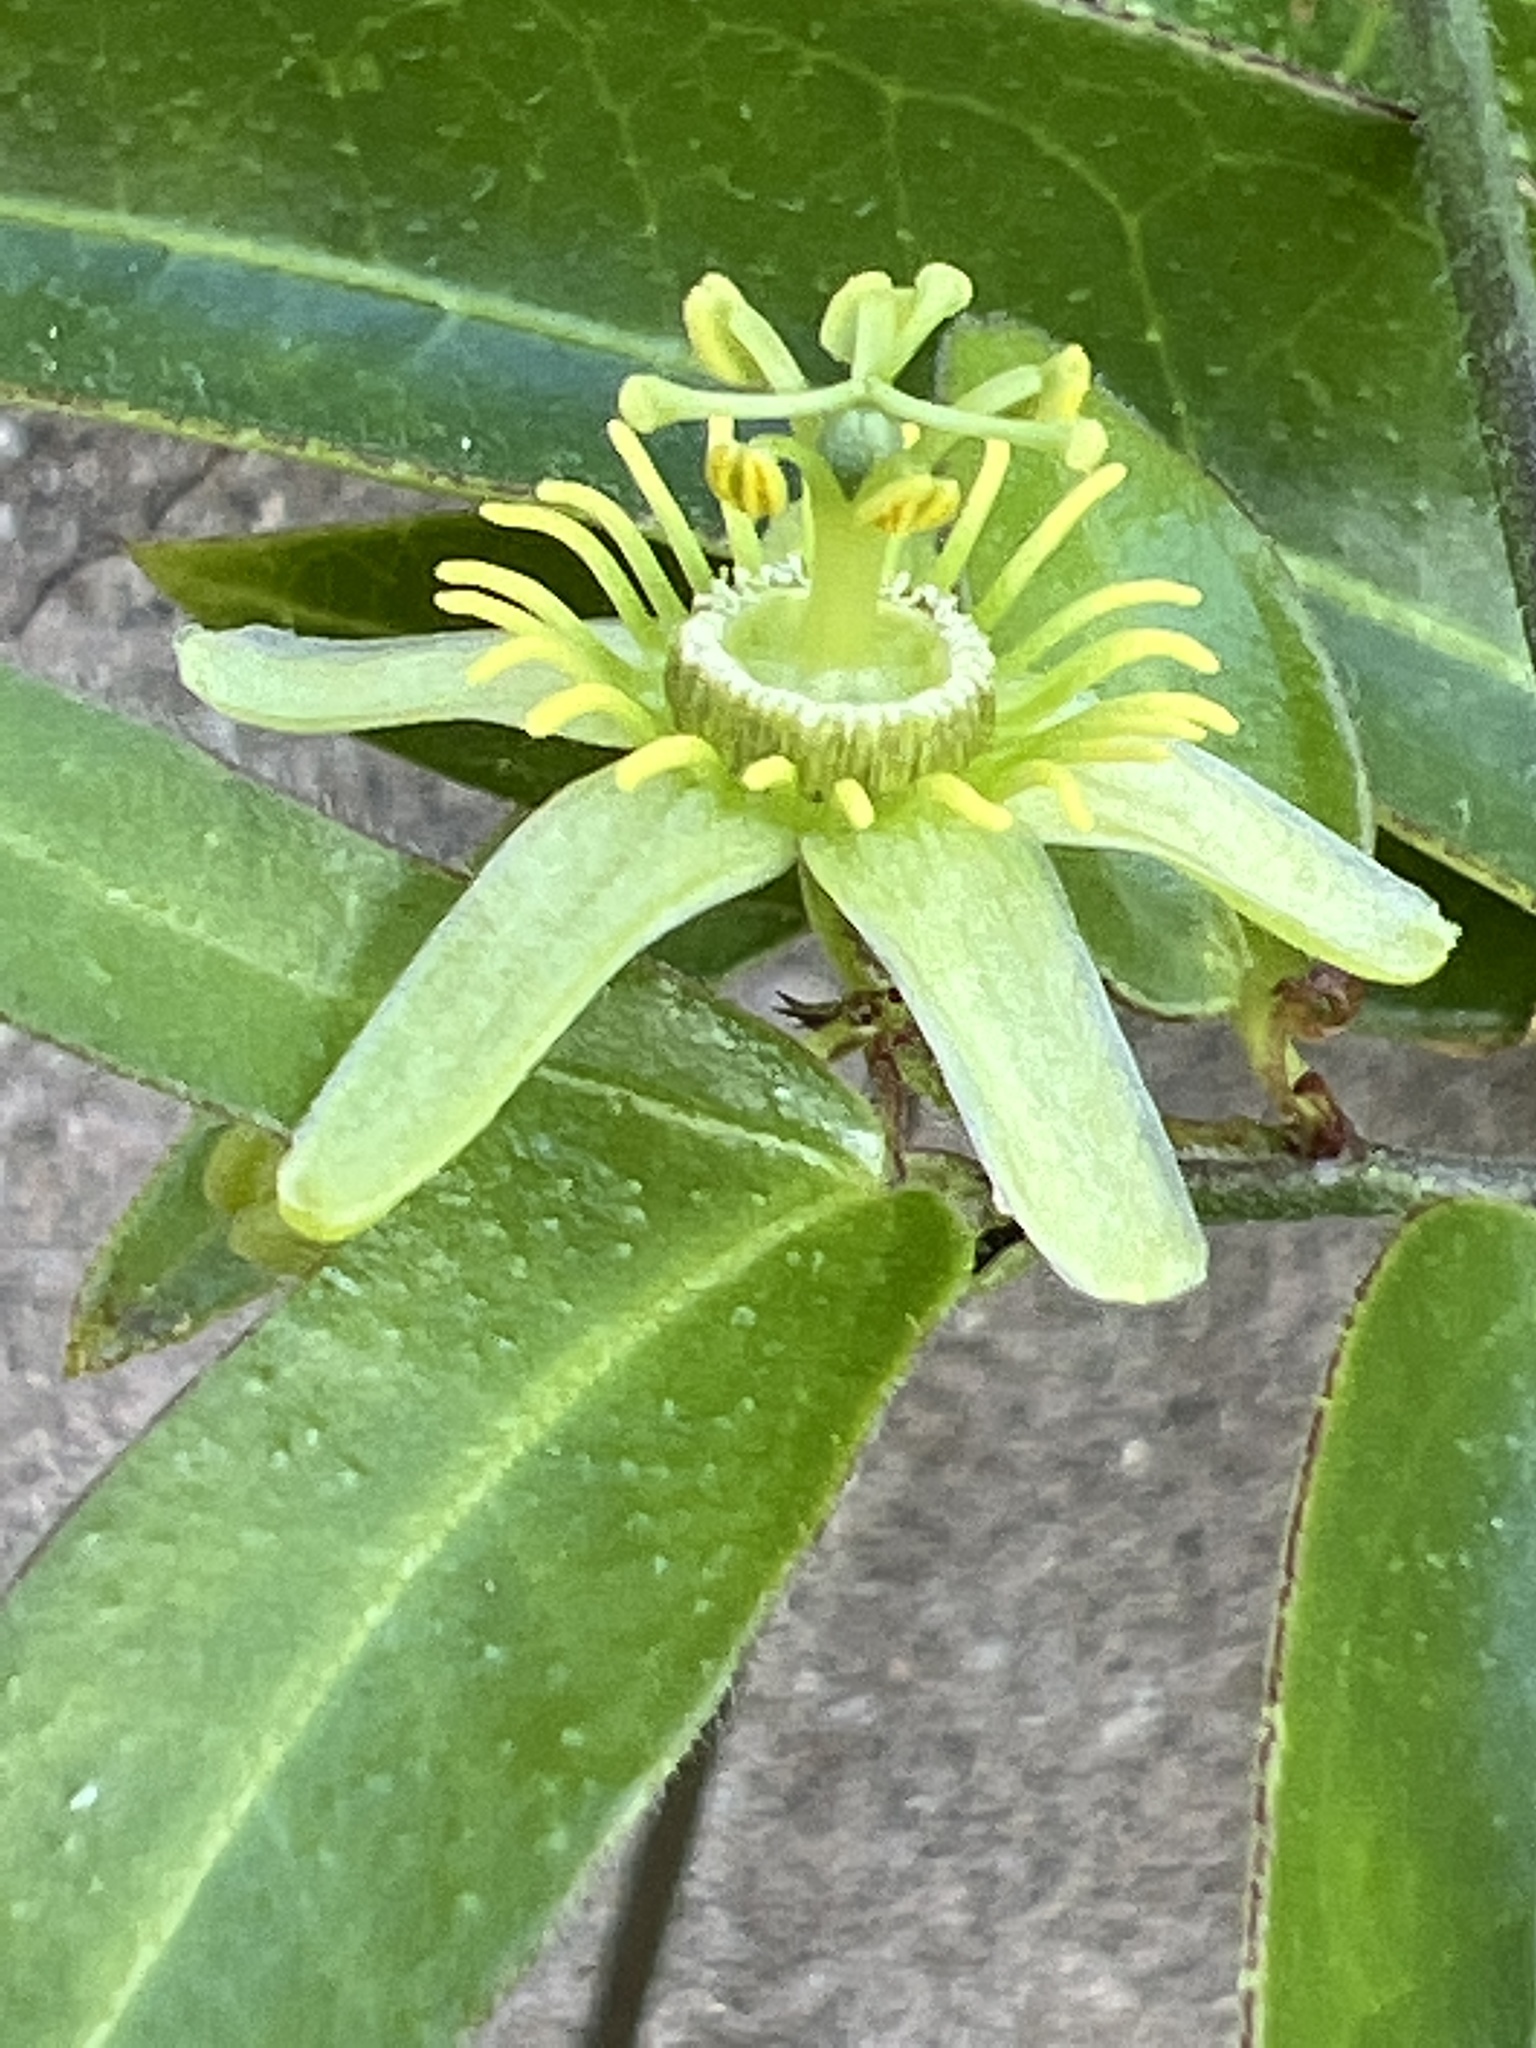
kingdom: Plantae
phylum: Tracheophyta
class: Magnoliopsida
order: Malpighiales
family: Passifloraceae
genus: Passiflora
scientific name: Passiflora suberosa
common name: Wild passionfruit
